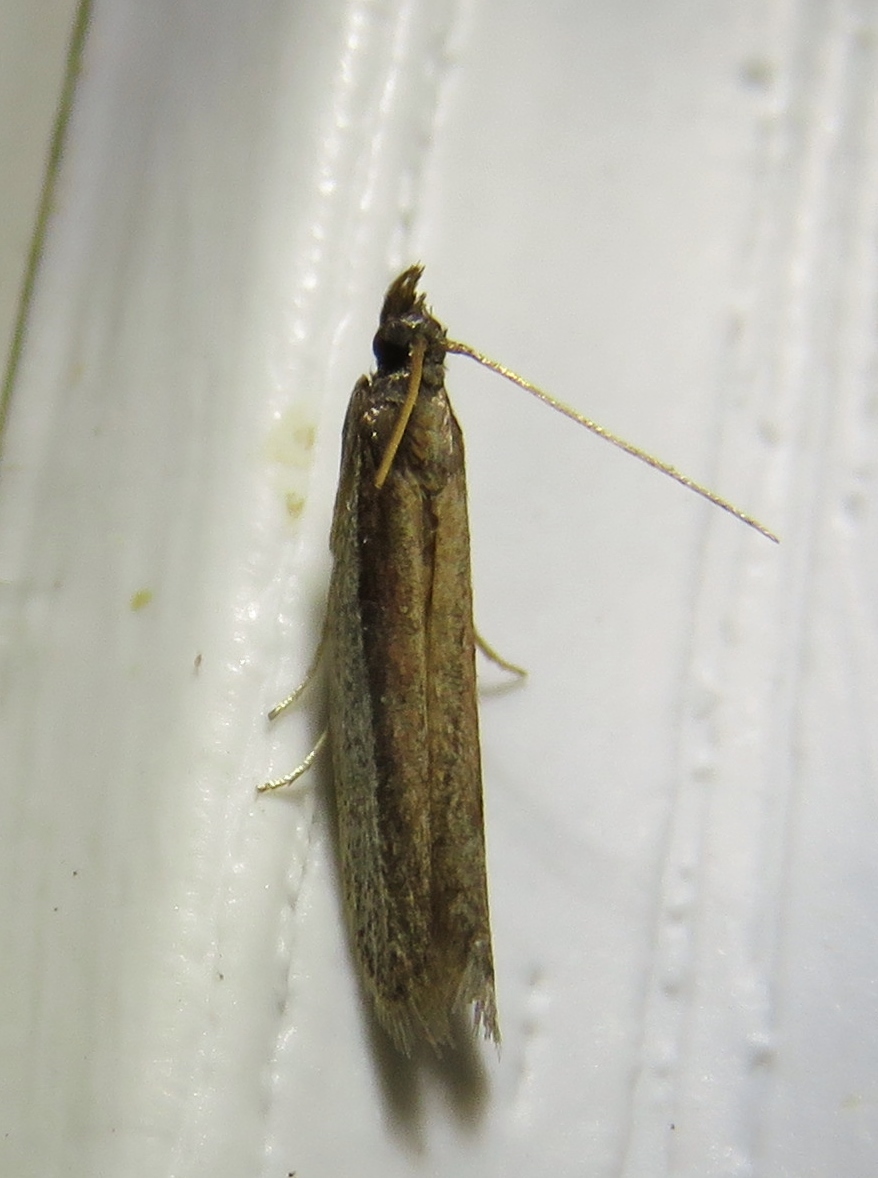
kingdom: Animalia
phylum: Arthropoda
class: Insecta
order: Lepidoptera
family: Pyralidae
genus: Tampa
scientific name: Tampa dimediatella
